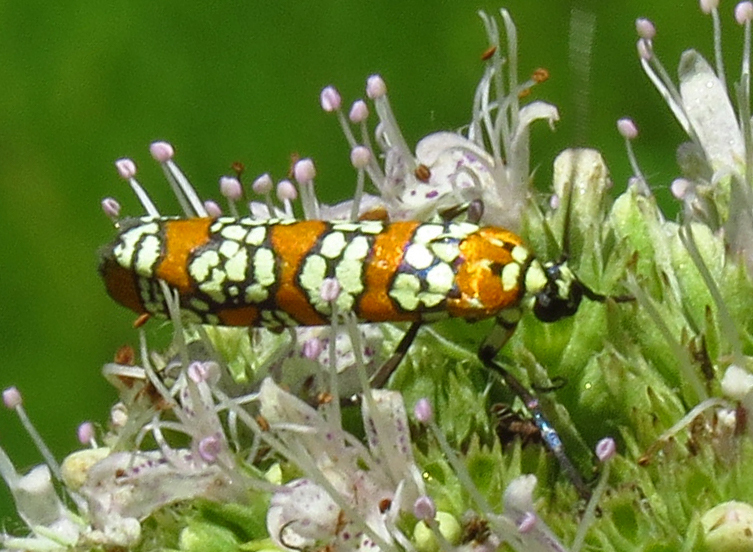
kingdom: Animalia
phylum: Arthropoda
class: Insecta
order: Lepidoptera
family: Attevidae
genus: Atteva
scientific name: Atteva punctella
